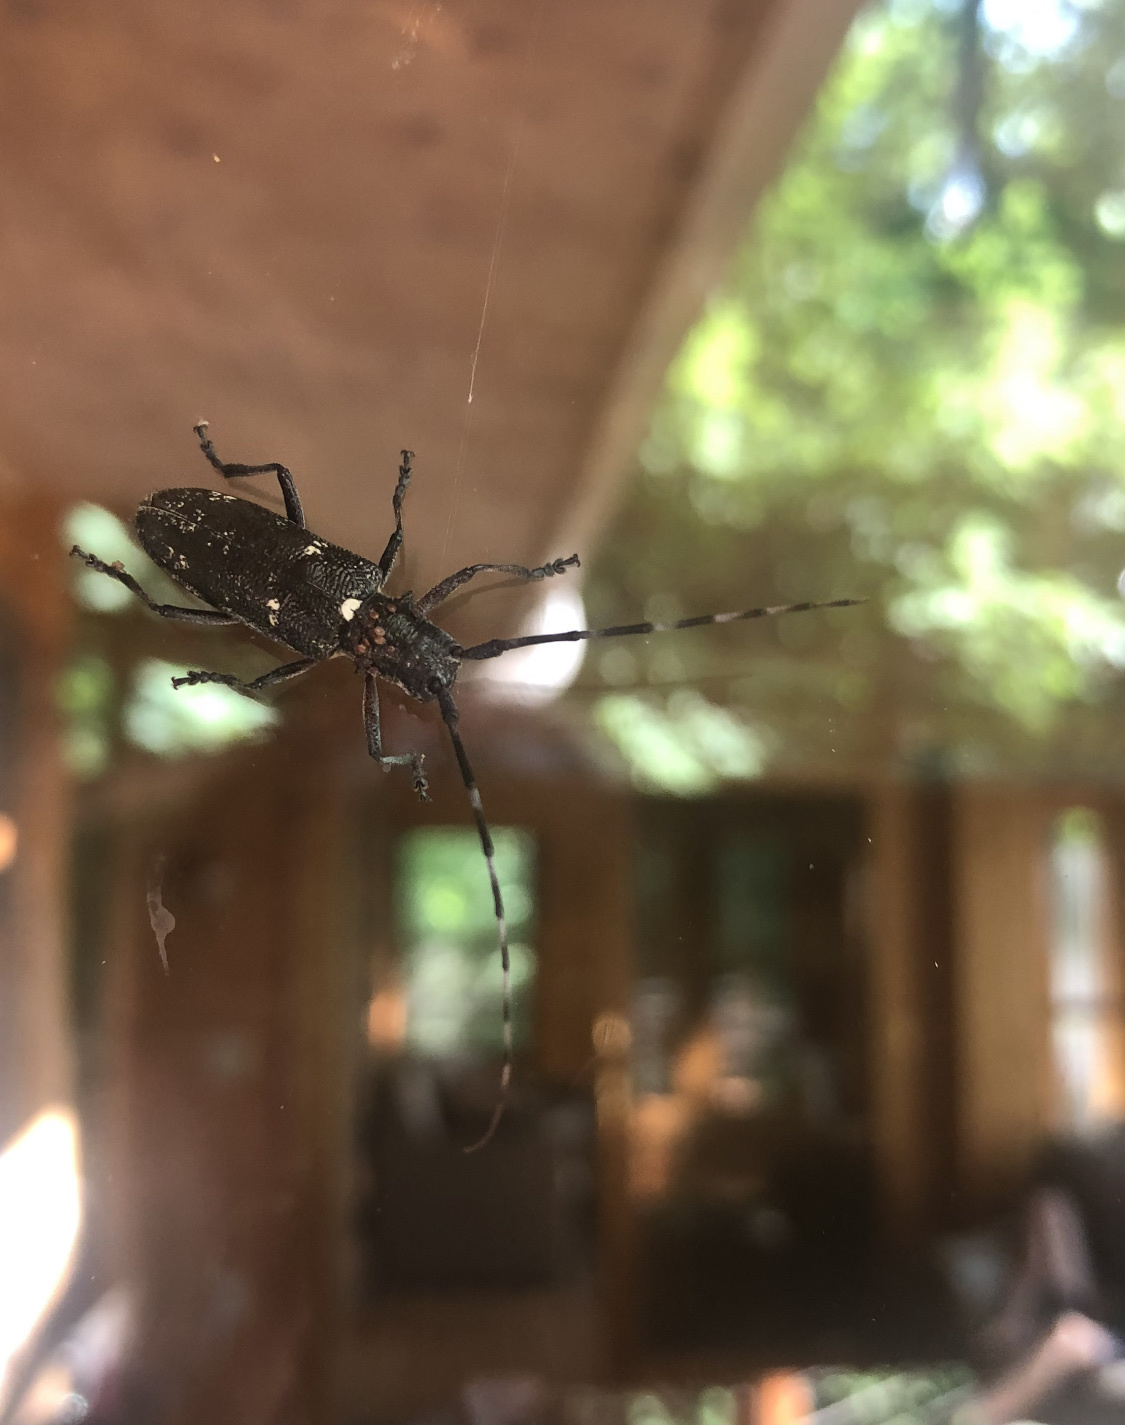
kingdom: Animalia
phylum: Arthropoda
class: Insecta
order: Coleoptera
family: Cerambycidae
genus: Monochamus
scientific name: Monochamus scutellatus
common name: White-spotted sawyer beetle
